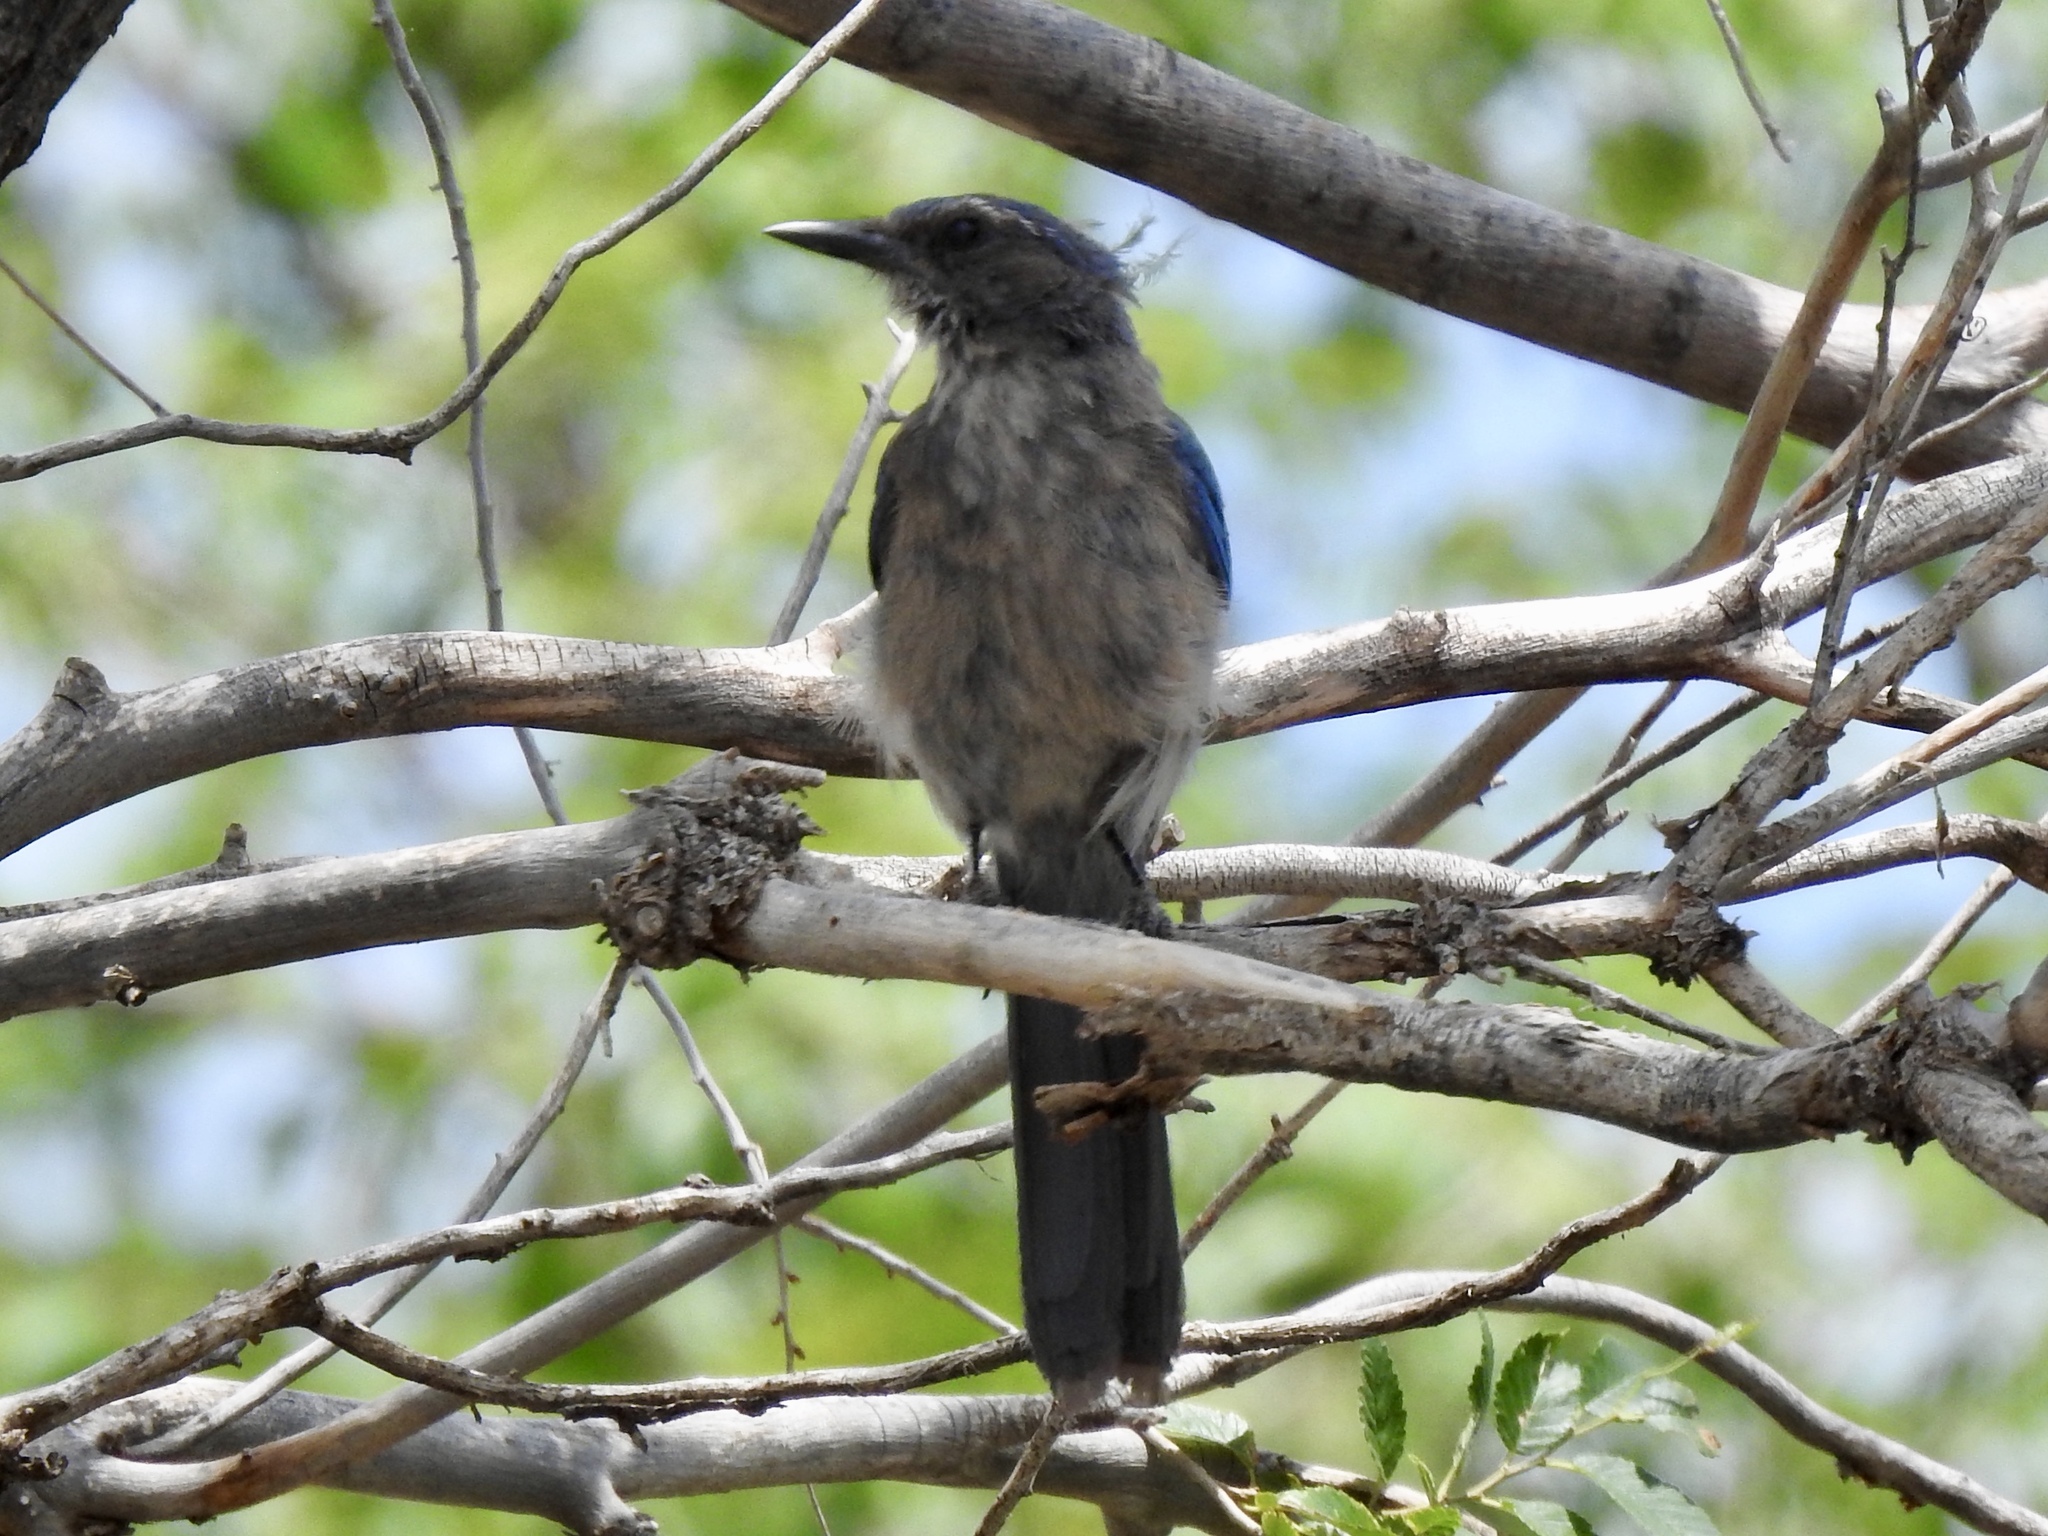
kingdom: Animalia
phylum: Chordata
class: Aves
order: Passeriformes
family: Corvidae
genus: Aphelocoma
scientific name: Aphelocoma woodhouseii
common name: Woodhouse's scrub-jay
